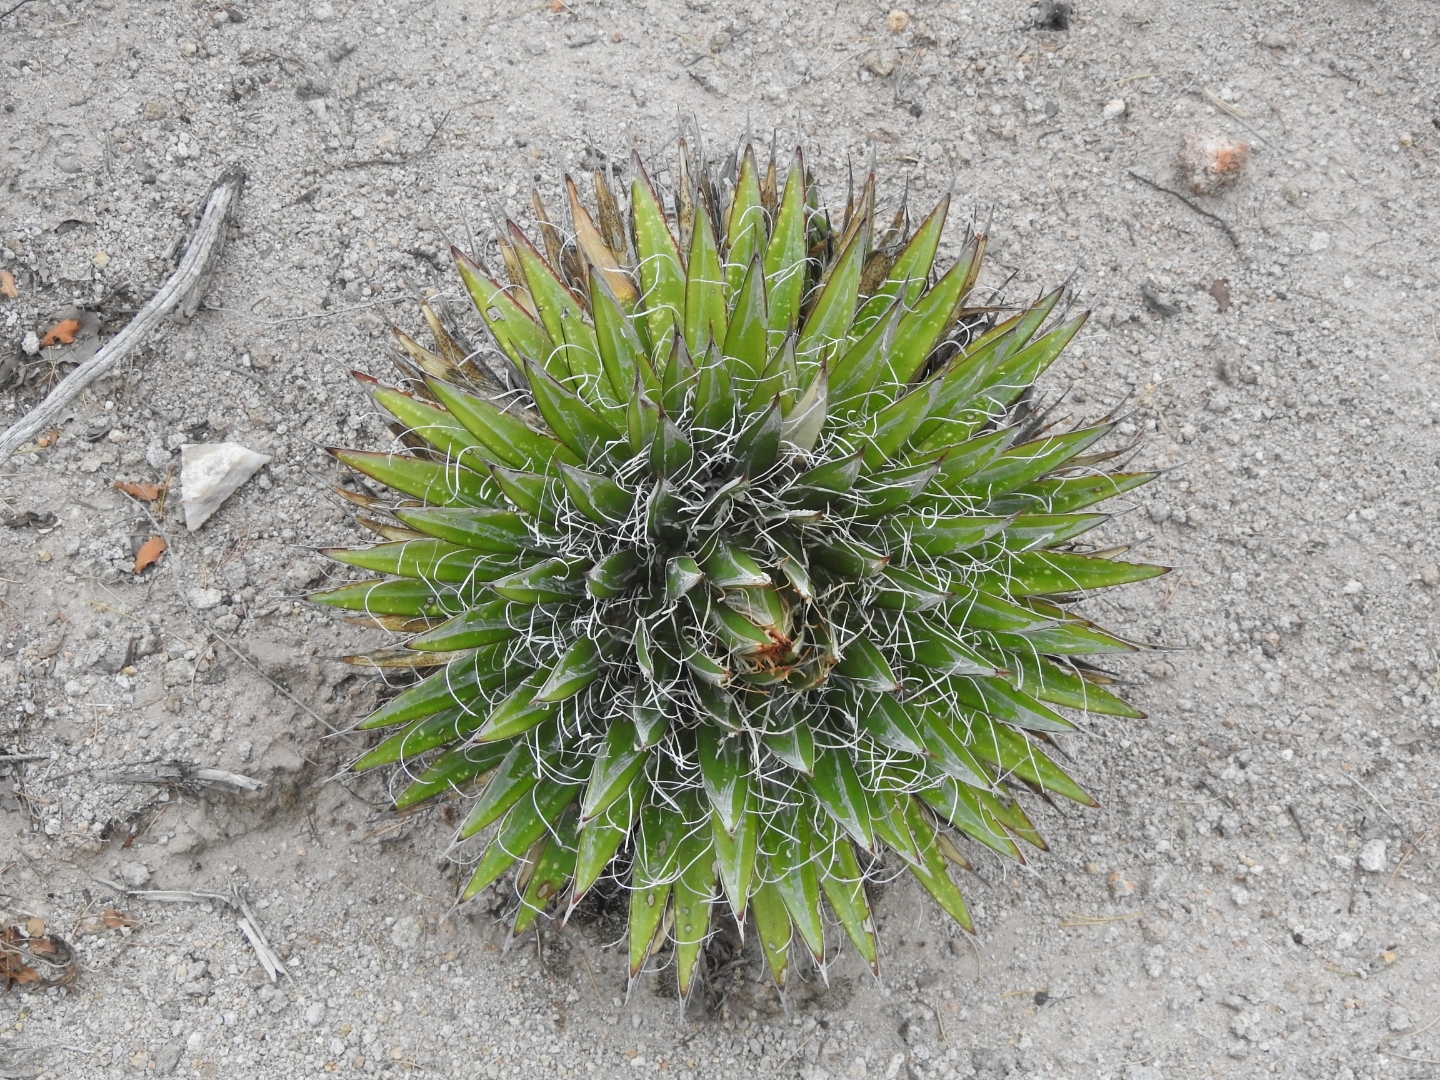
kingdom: Plantae
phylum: Tracheophyta
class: Liliopsida
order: Asparagales
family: Asparagaceae
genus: Agave
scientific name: Agave schidigera
